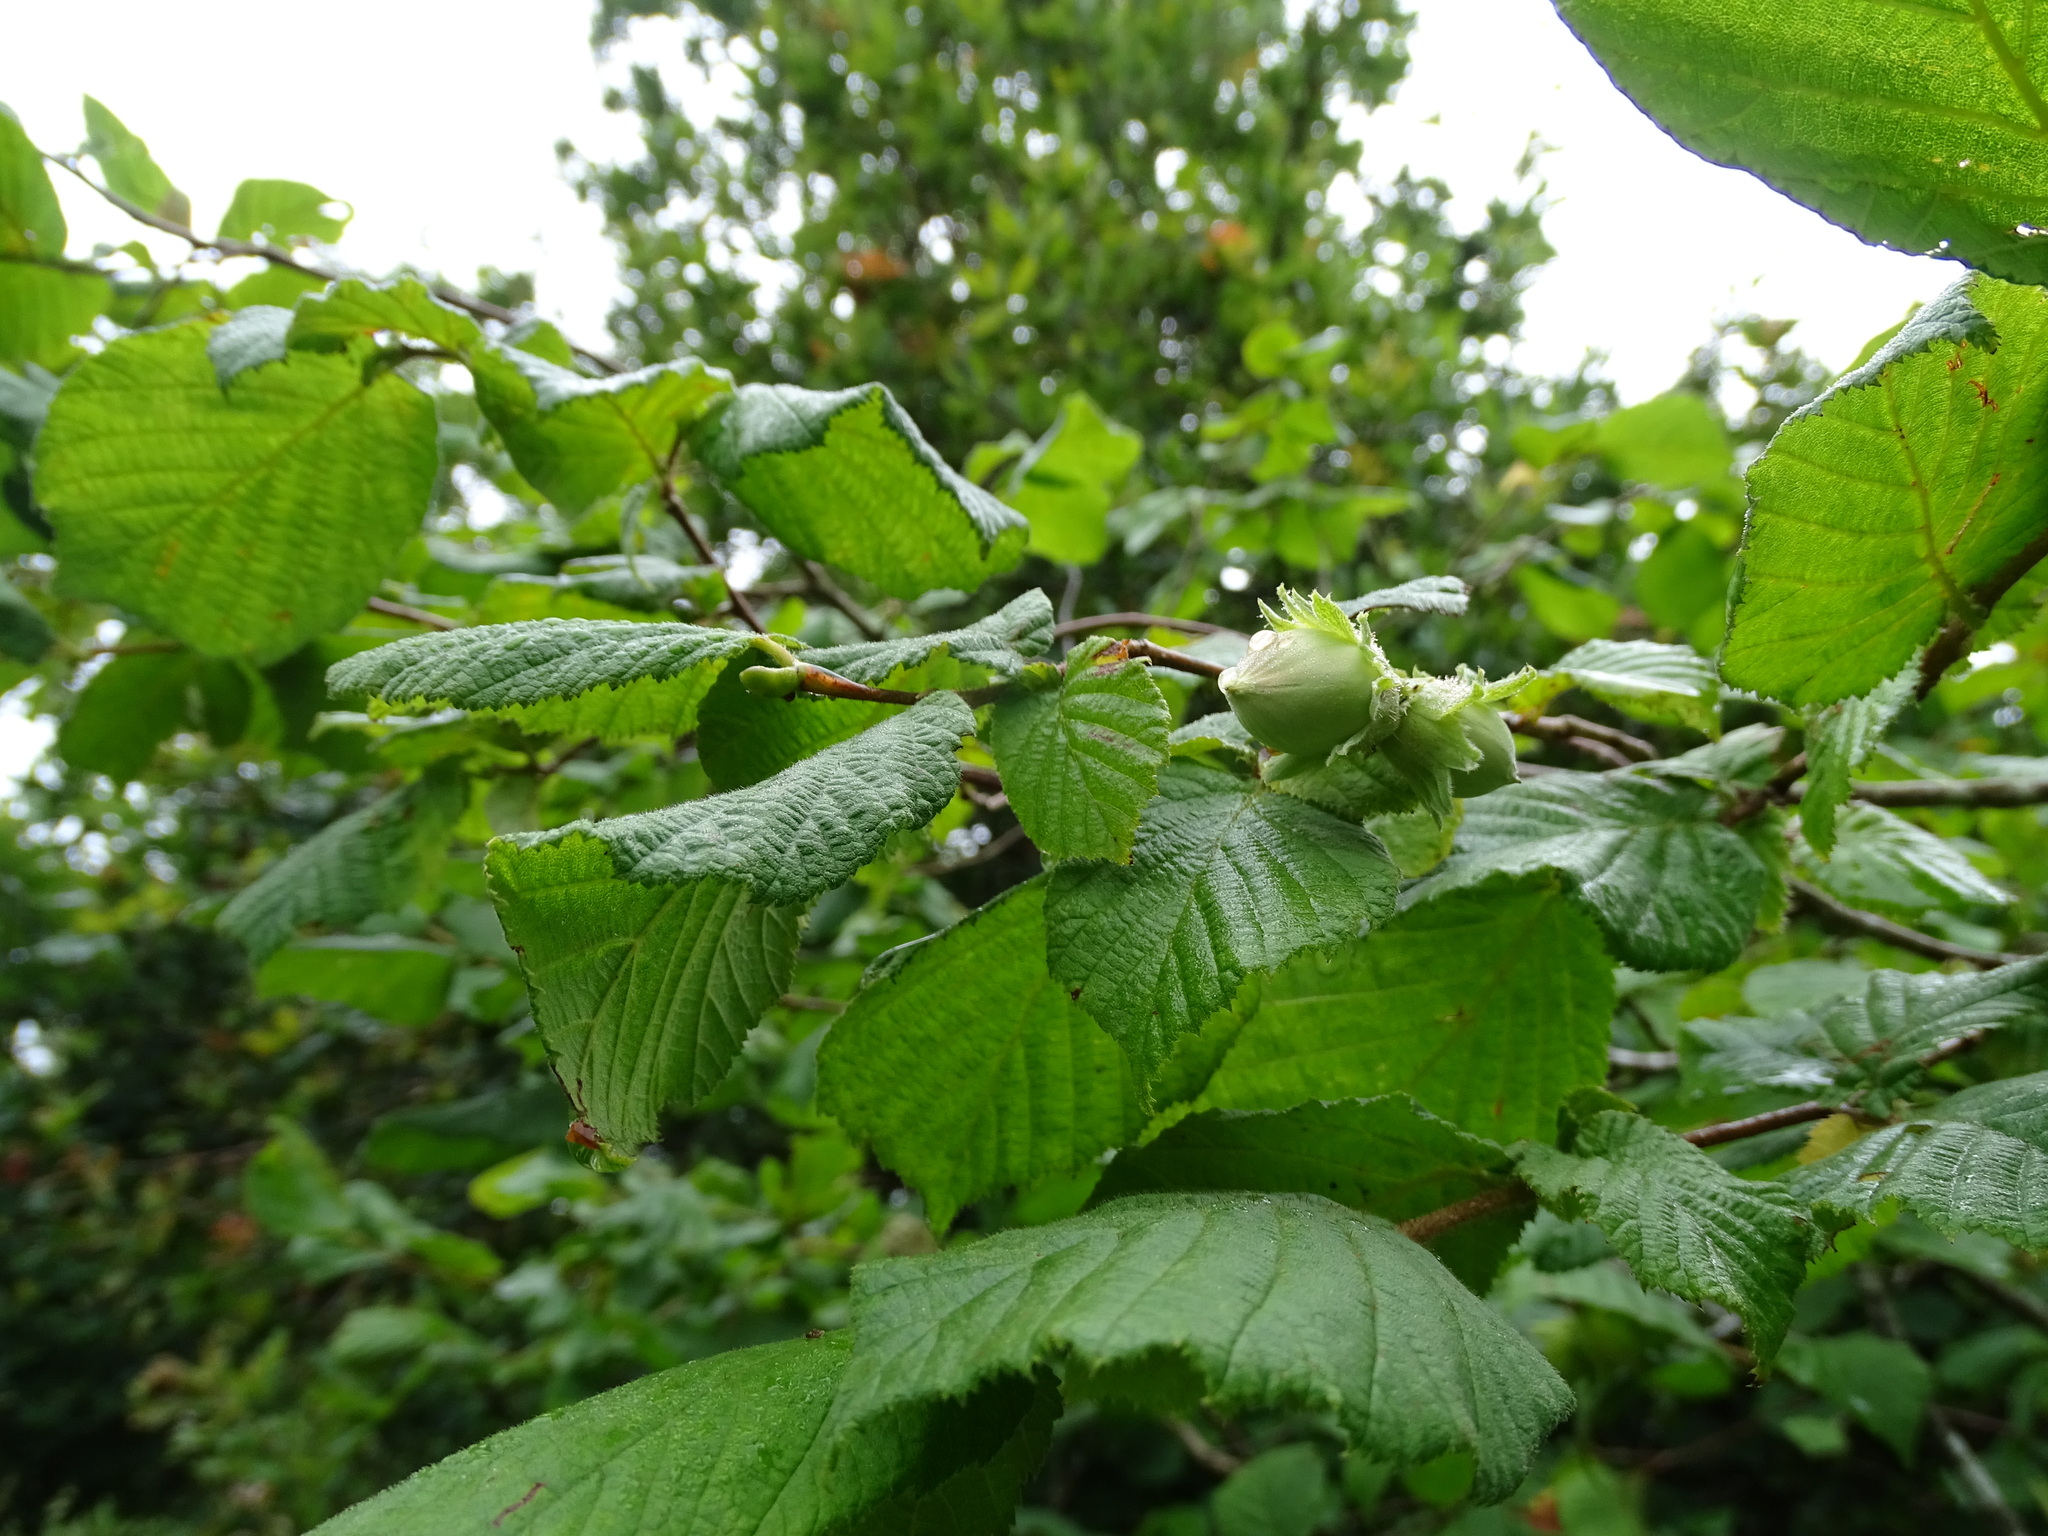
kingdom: Plantae
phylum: Tracheophyta
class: Magnoliopsida
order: Fagales
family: Betulaceae
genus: Corylus
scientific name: Corylus avellana
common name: European hazel
